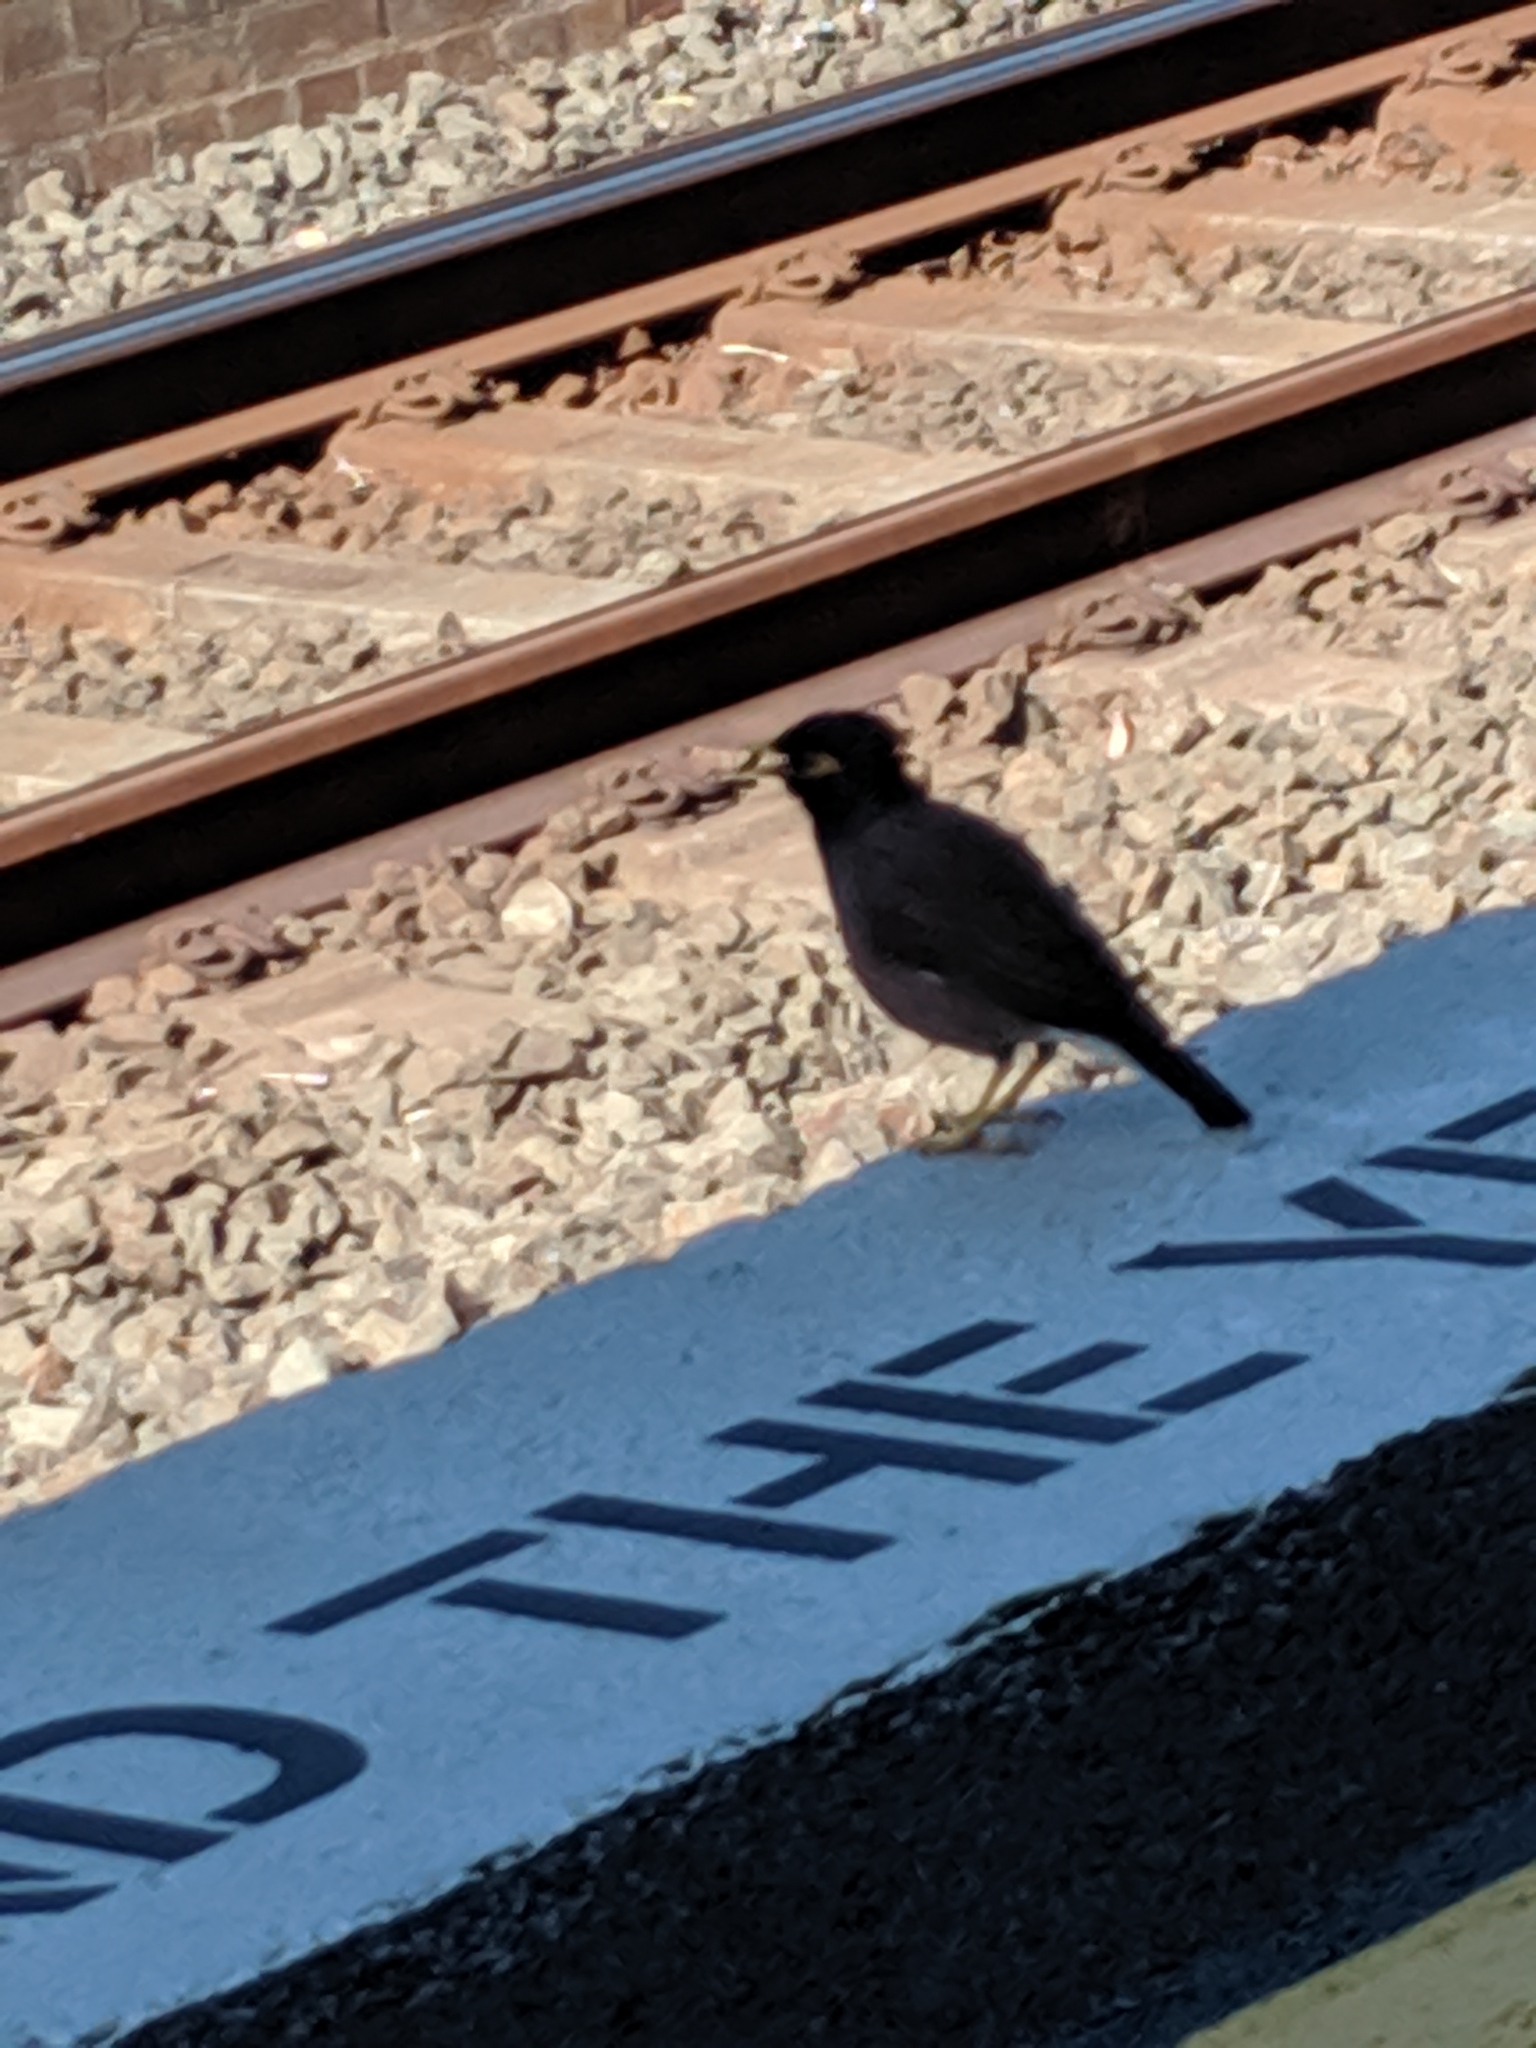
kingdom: Animalia
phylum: Chordata
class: Aves
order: Passeriformes
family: Sturnidae
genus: Acridotheres
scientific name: Acridotheres tristis
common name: Common myna
